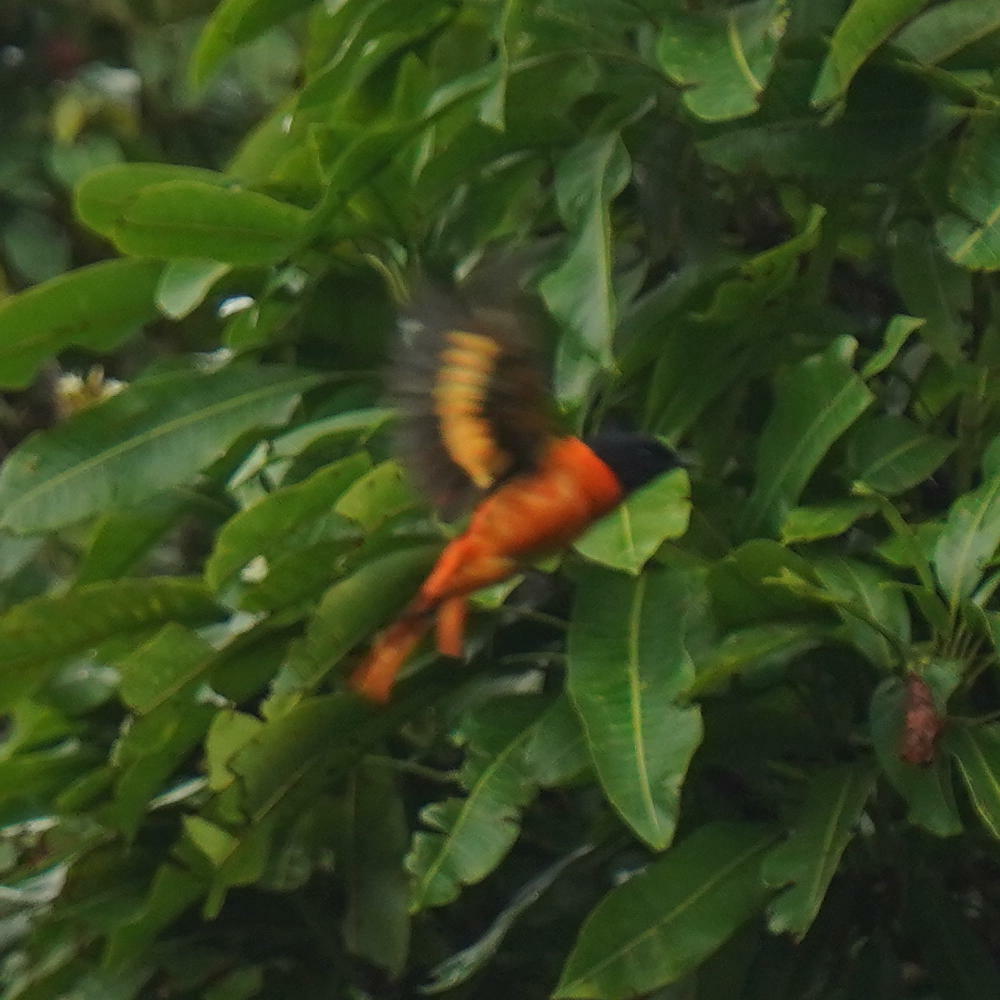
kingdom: Animalia
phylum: Chordata
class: Aves
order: Passeriformes
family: Campephagidae
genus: Pericrocotus
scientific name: Pericrocotus flammeus
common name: Orange minivet
